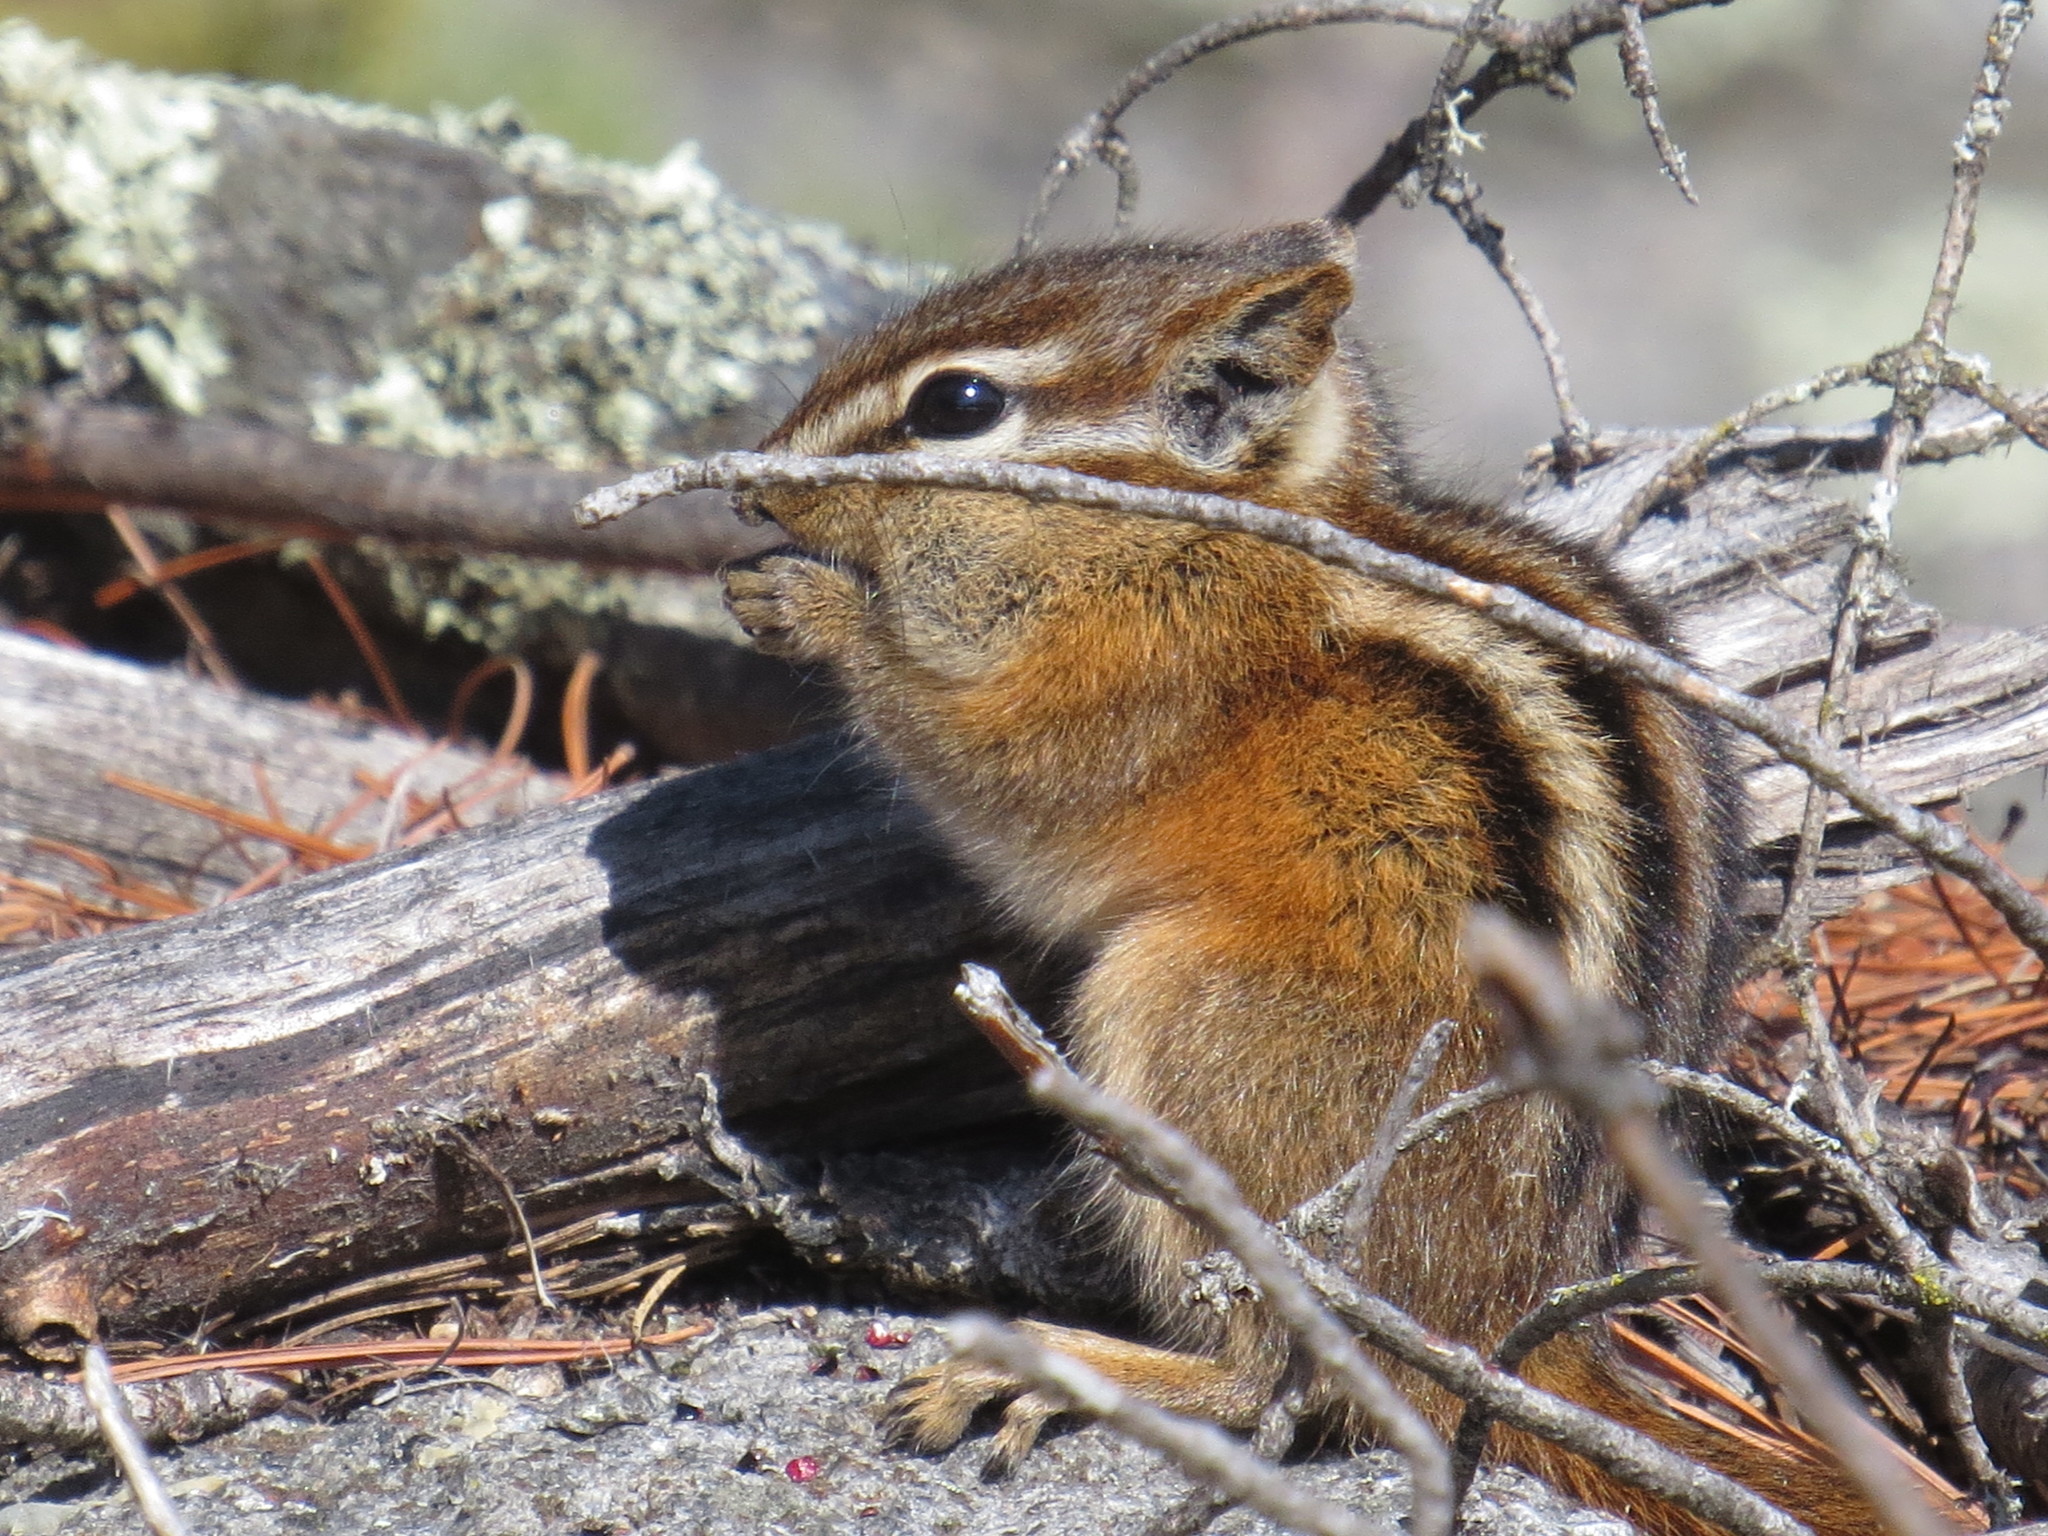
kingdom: Animalia
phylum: Chordata
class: Mammalia
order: Rodentia
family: Sciuridae
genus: Tamias
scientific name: Tamias minimus
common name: Least chipmunk
